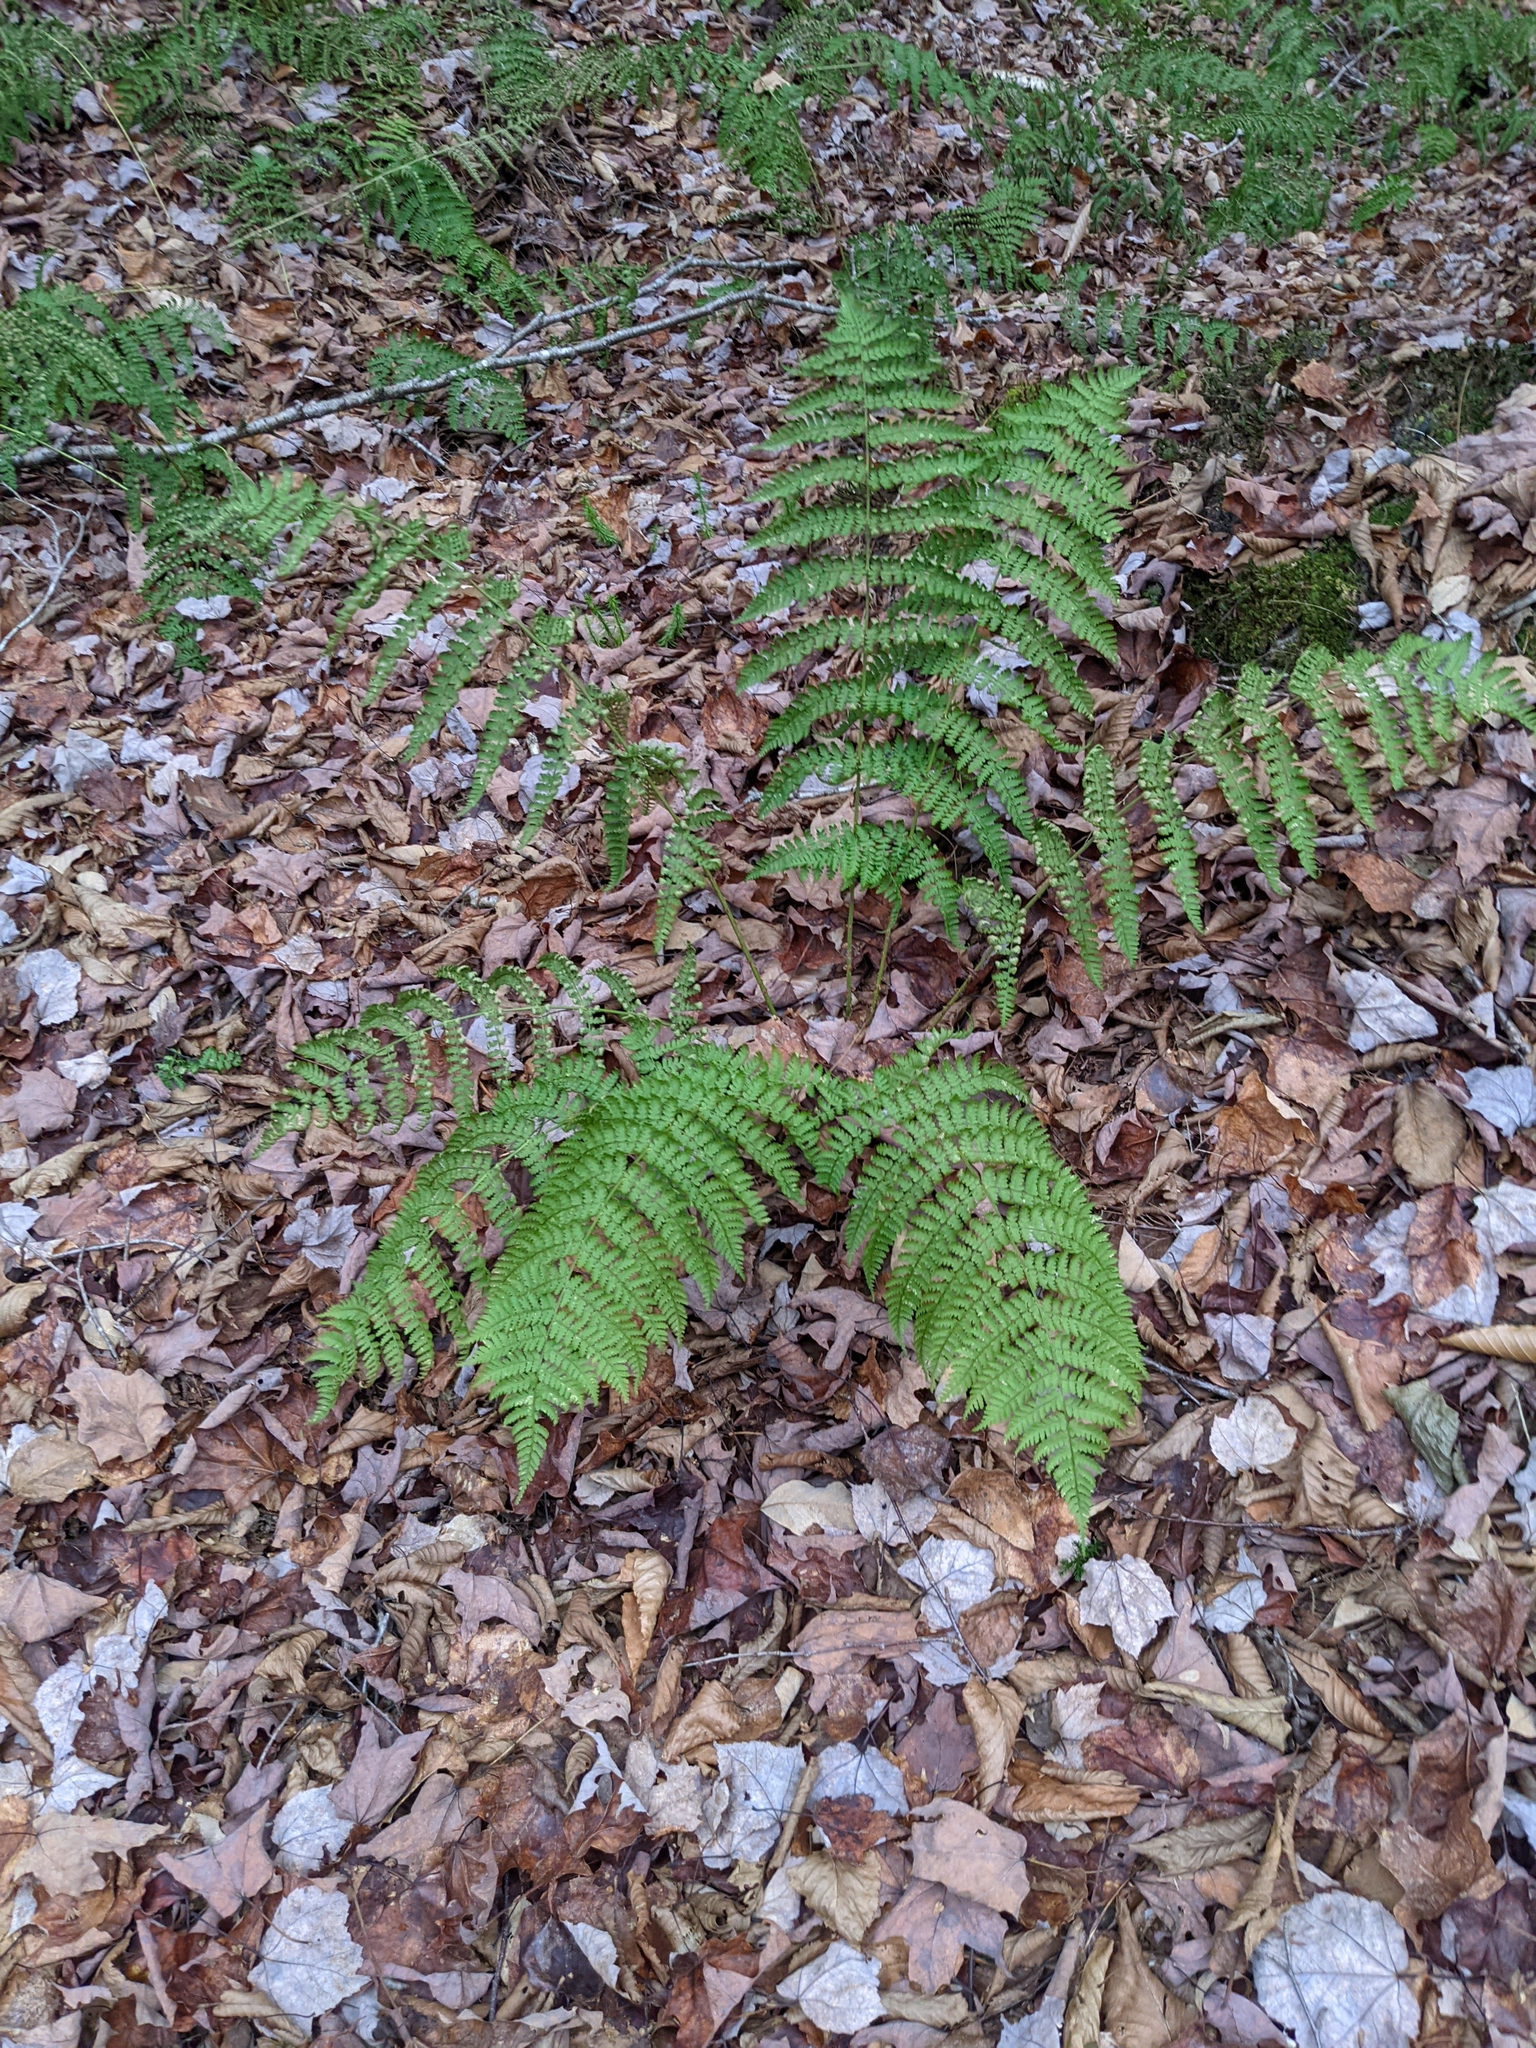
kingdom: Plantae
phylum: Tracheophyta
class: Polypodiopsida
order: Polypodiales
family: Dryopteridaceae
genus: Dryopteris
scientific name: Dryopteris intermedia
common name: Evergreen wood fern
